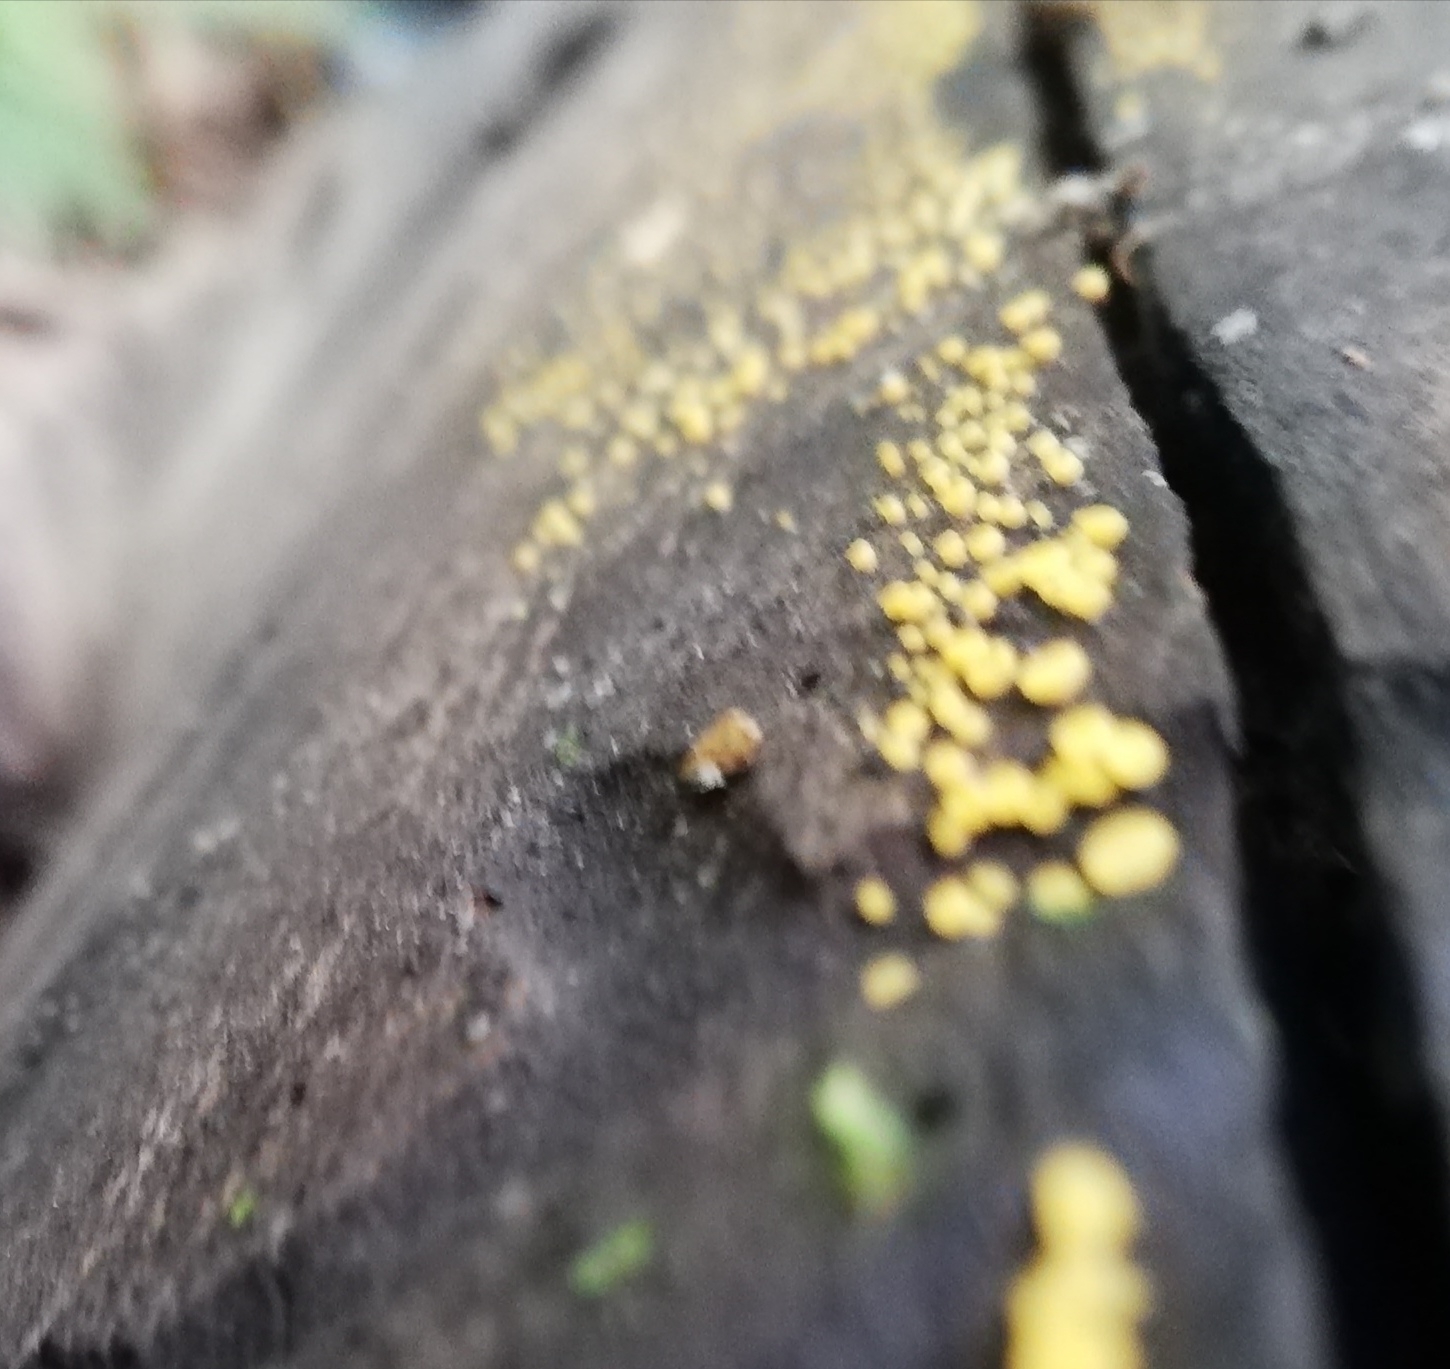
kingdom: Fungi
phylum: Ascomycota
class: Leotiomycetes
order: Helotiales
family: Pezizellaceae
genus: Calycina
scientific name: Calycina citrina
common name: Yellow fairy cups
